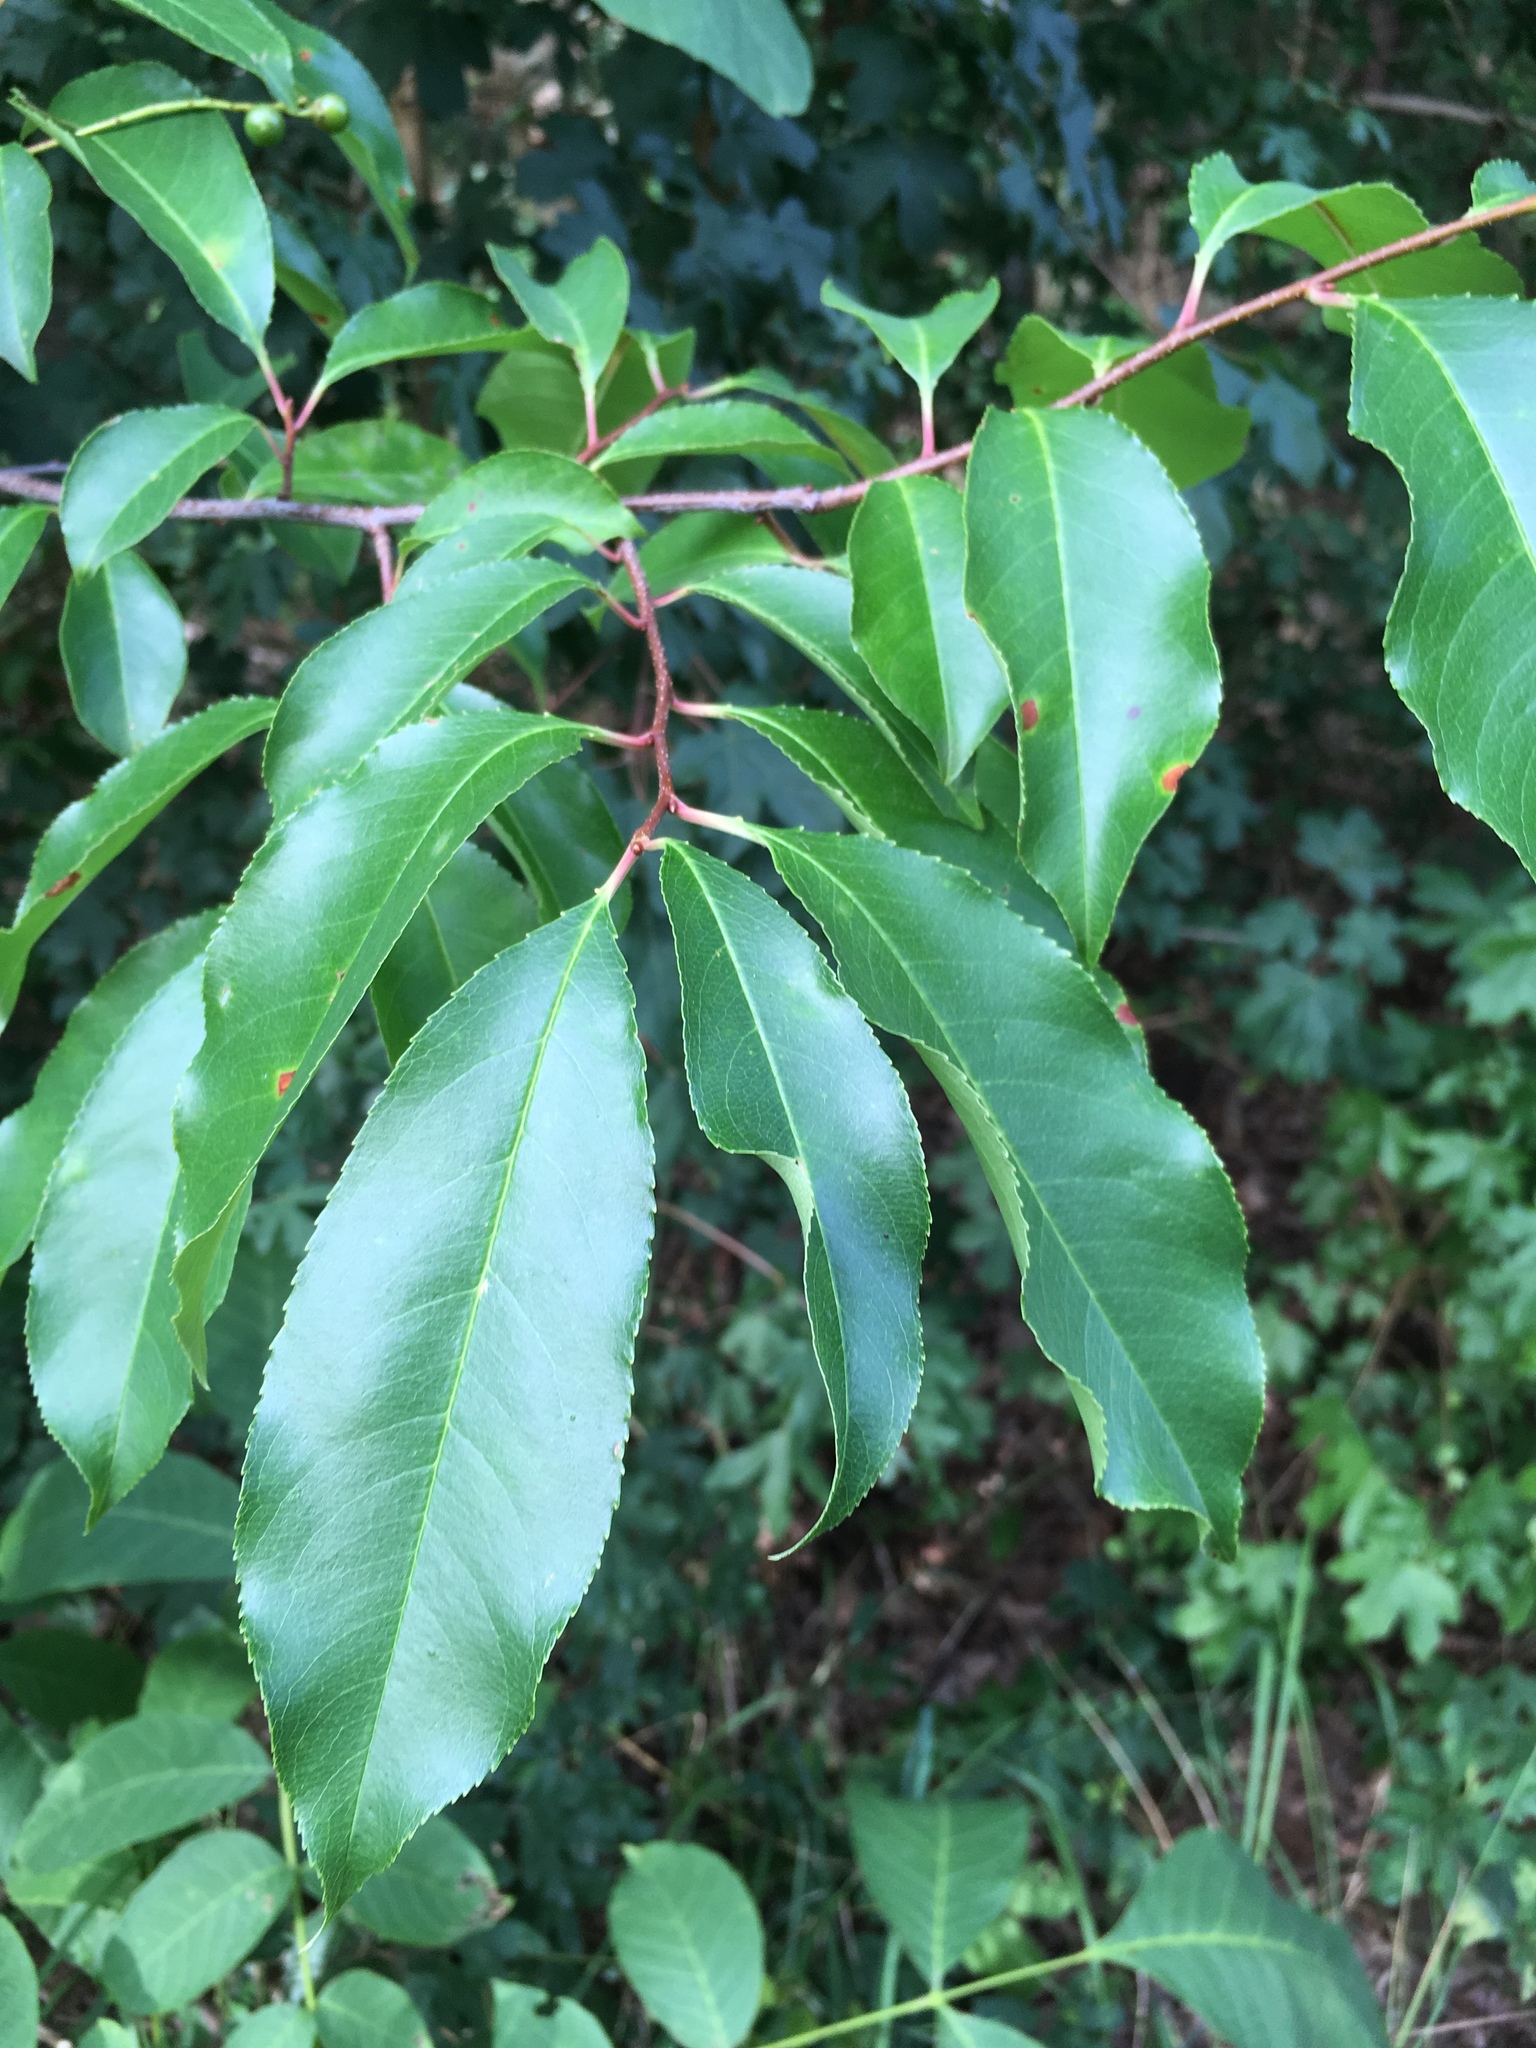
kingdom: Plantae
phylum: Tracheophyta
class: Magnoliopsida
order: Rosales
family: Rosaceae
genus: Prunus
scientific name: Prunus serotina
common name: Black cherry
